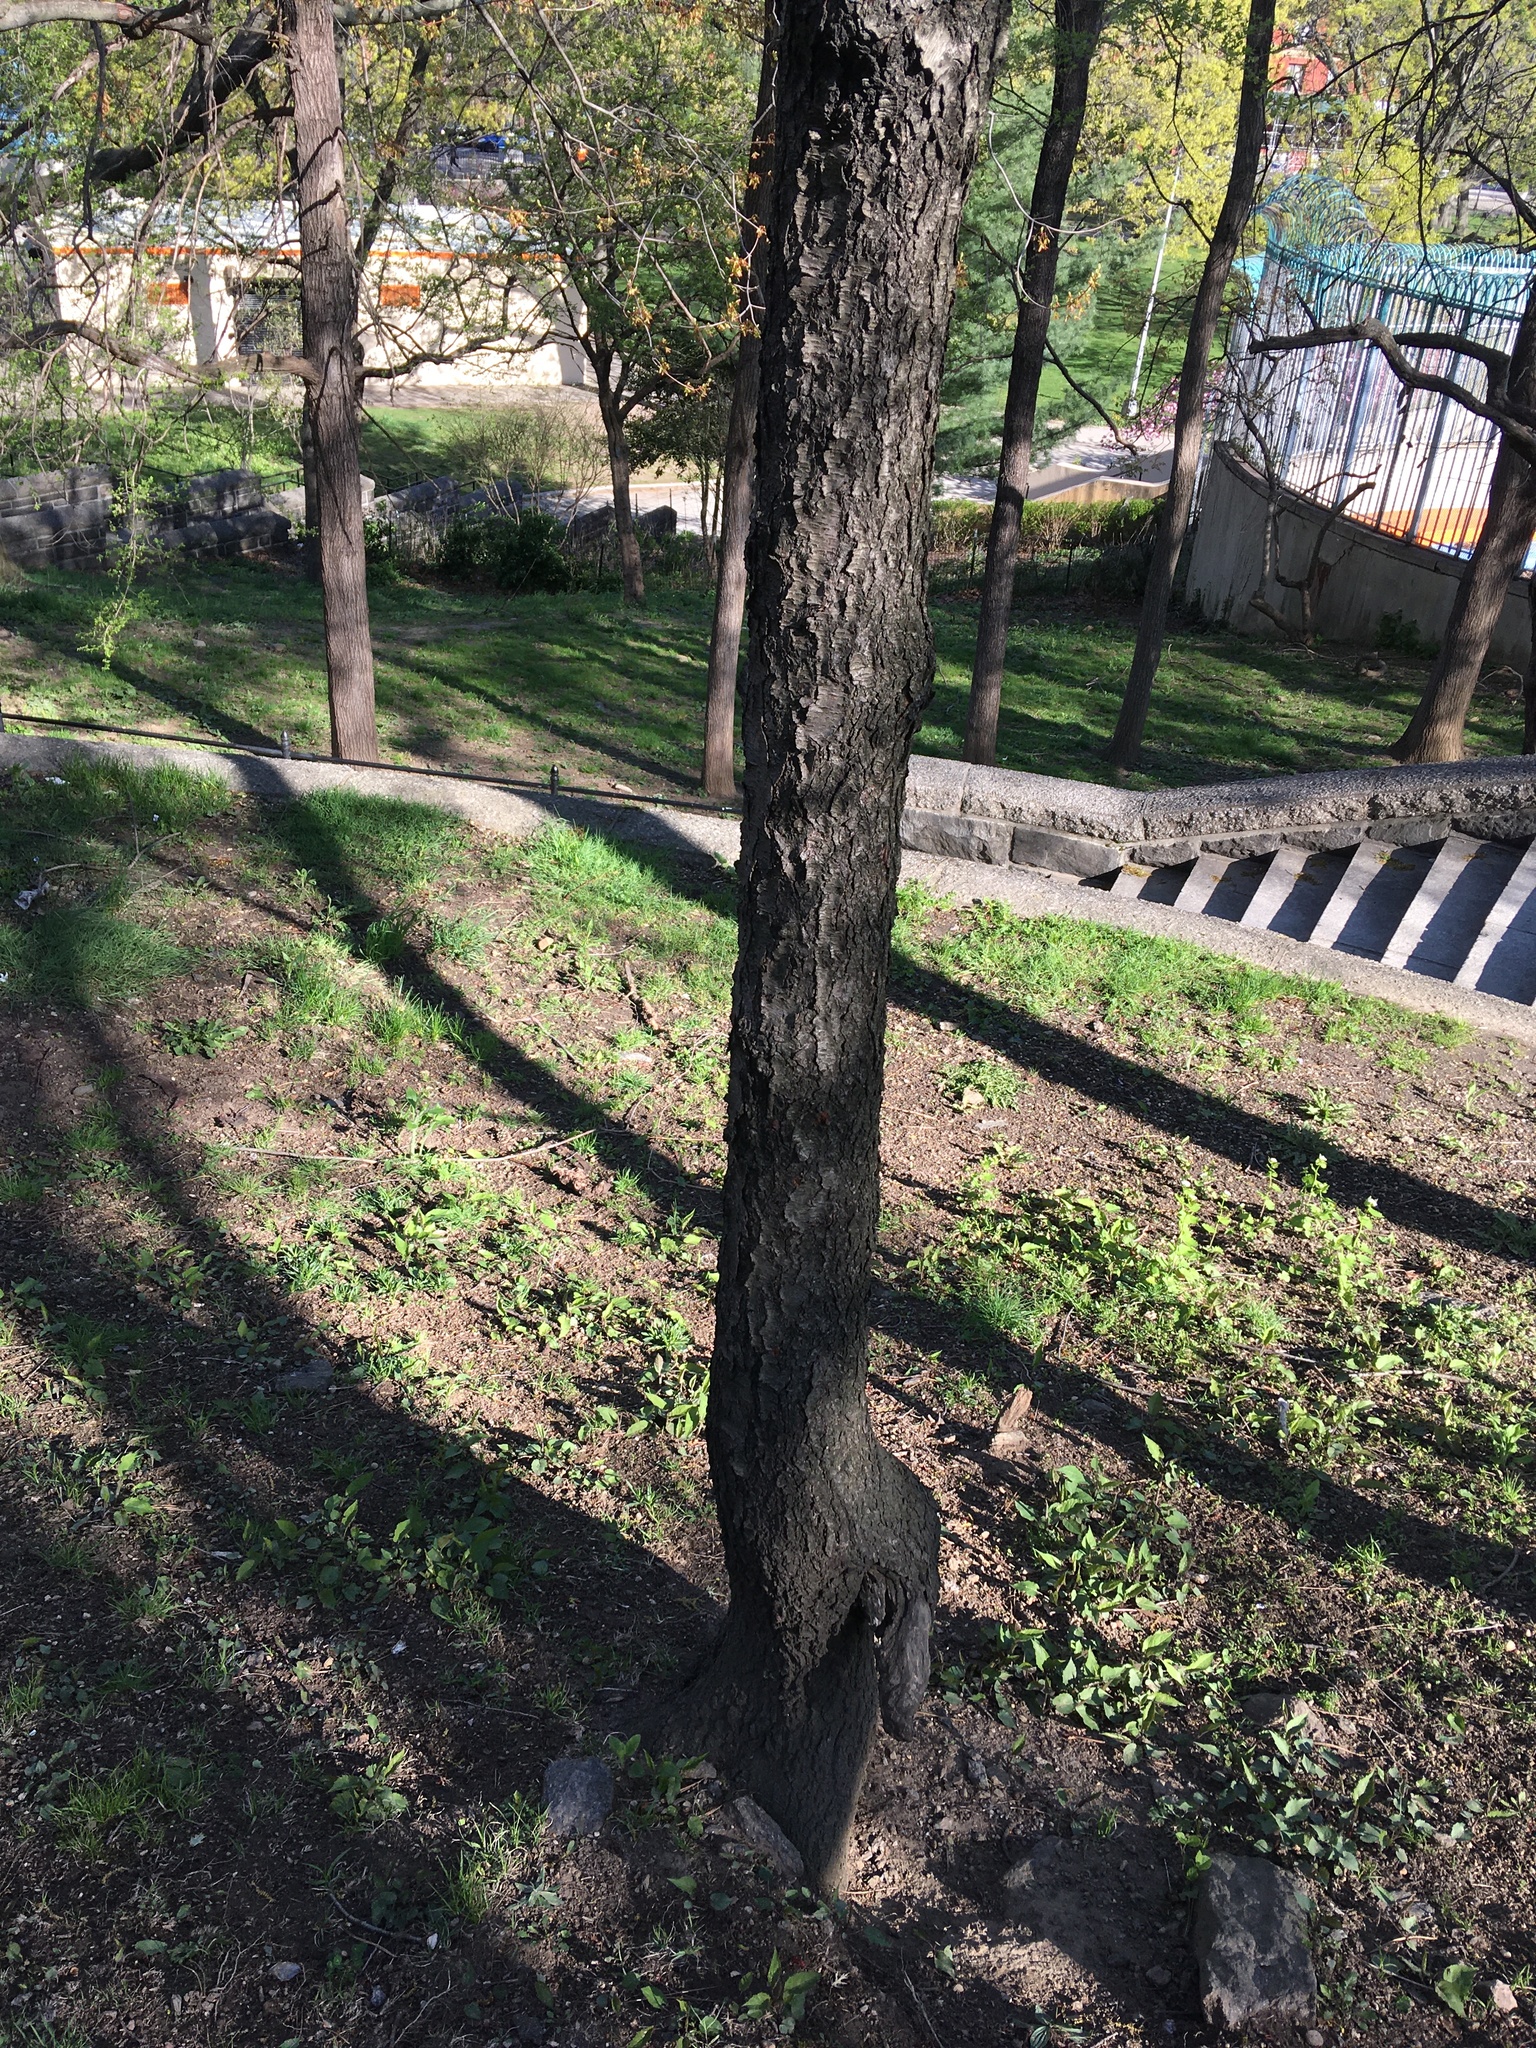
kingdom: Plantae
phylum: Tracheophyta
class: Magnoliopsida
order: Rosales
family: Rosaceae
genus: Prunus
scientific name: Prunus serotina
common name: Black cherry
